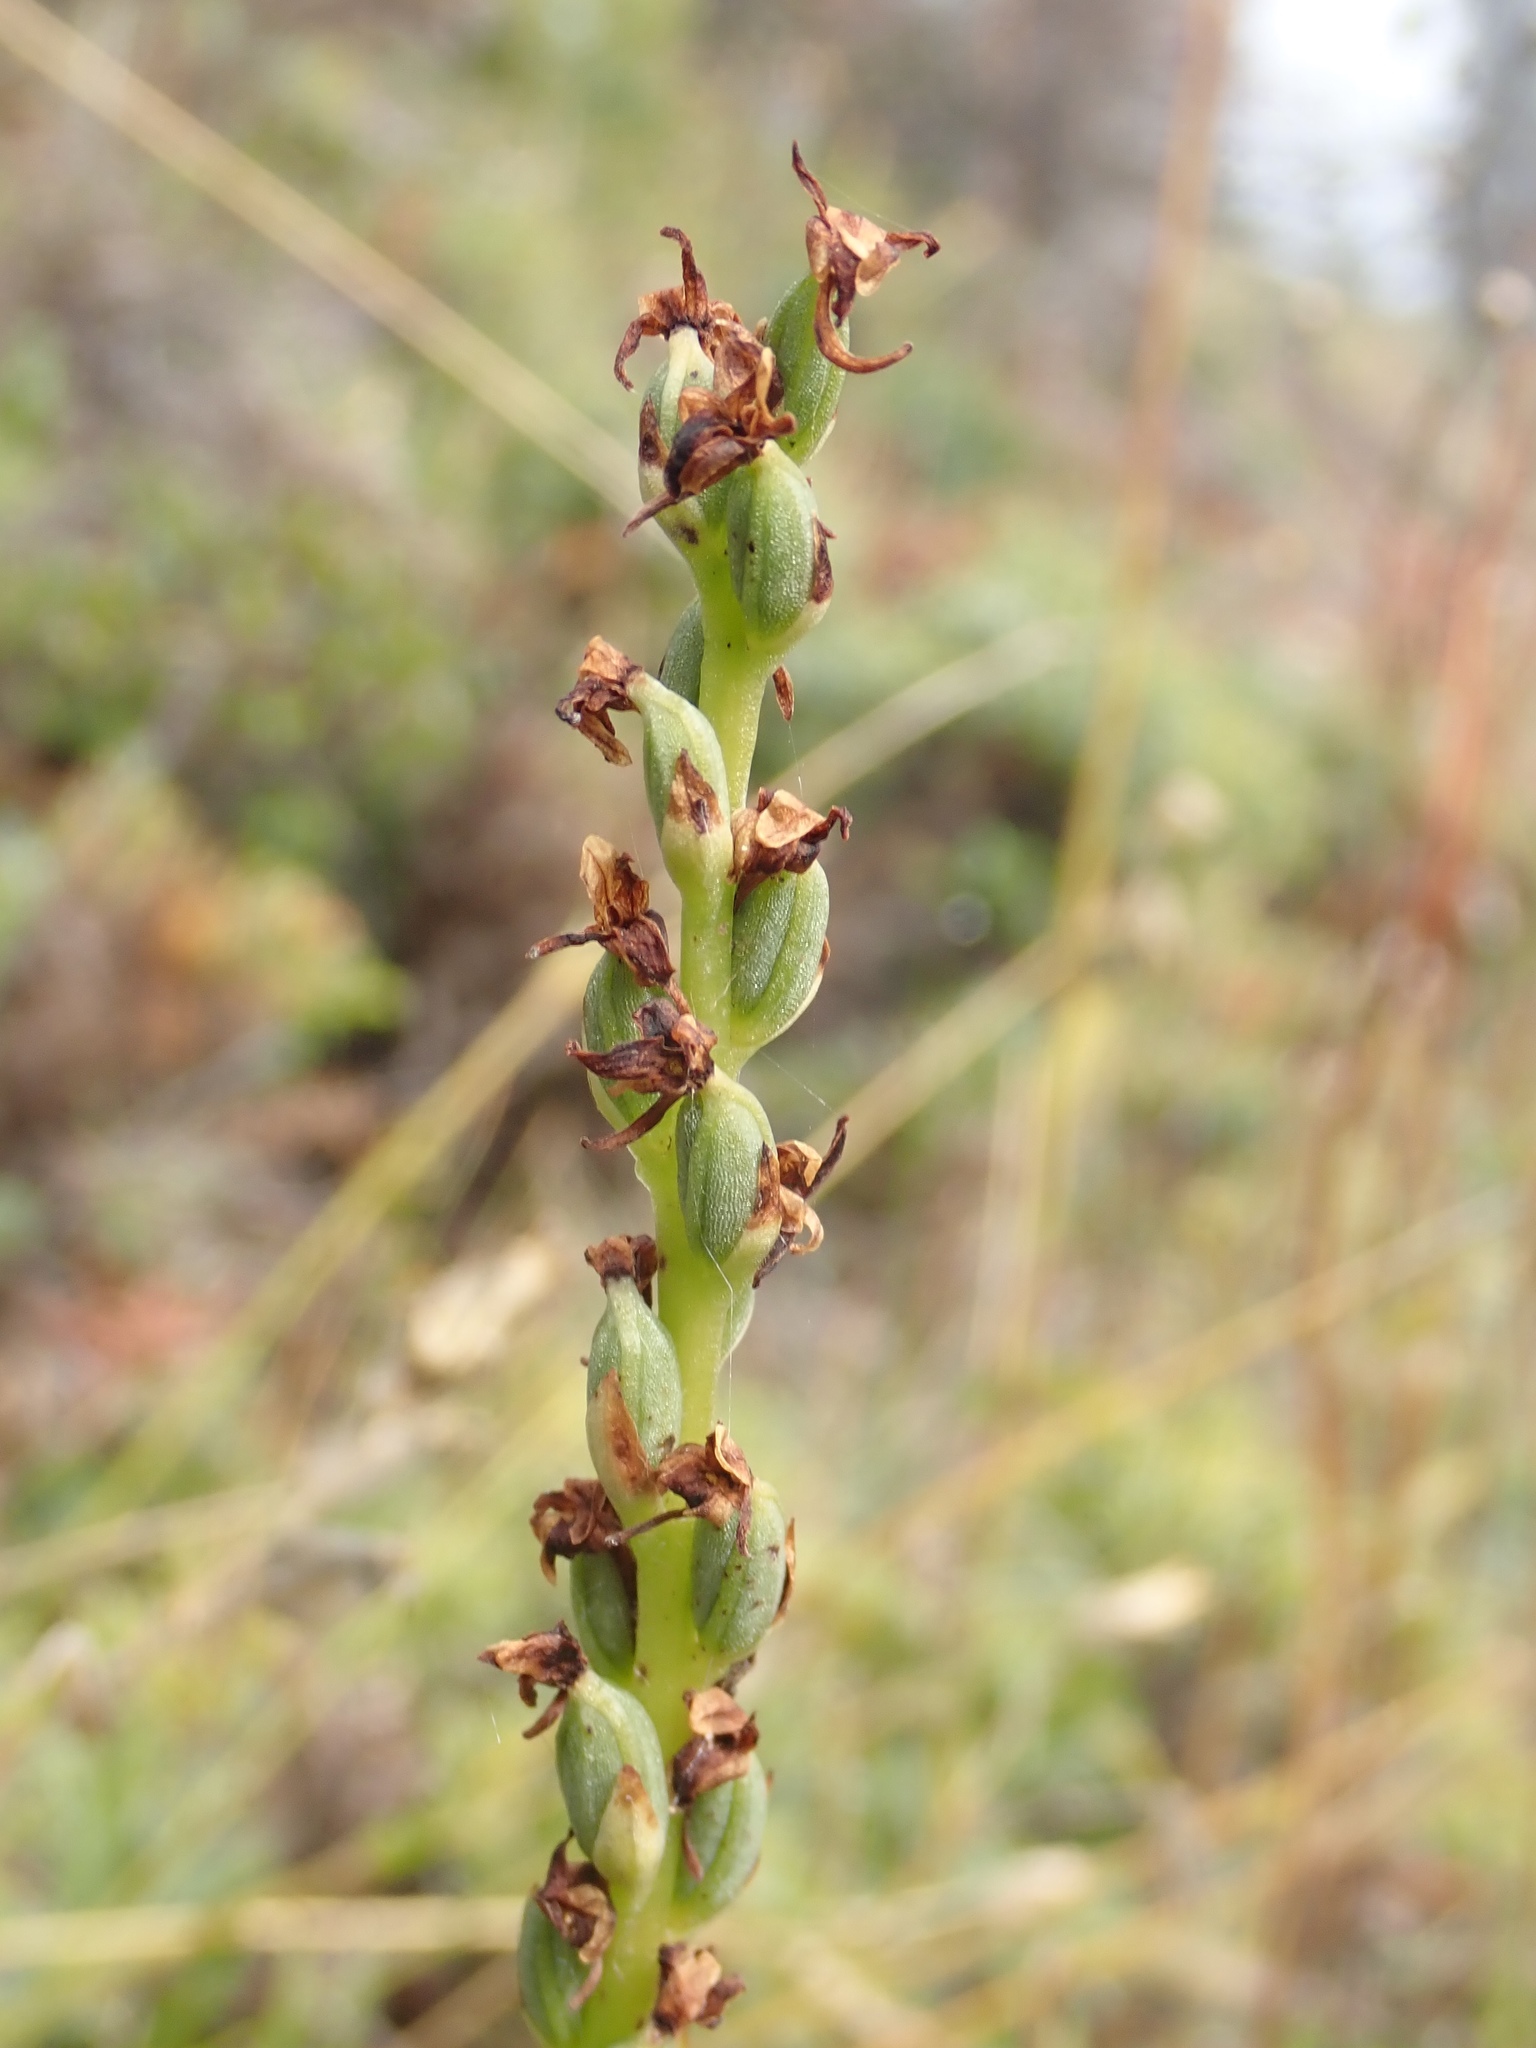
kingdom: Plantae
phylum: Tracheophyta
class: Liliopsida
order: Asparagales
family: Orchidaceae
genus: Platanthera
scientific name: Platanthera unalascensis
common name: Alaska bog orchid
